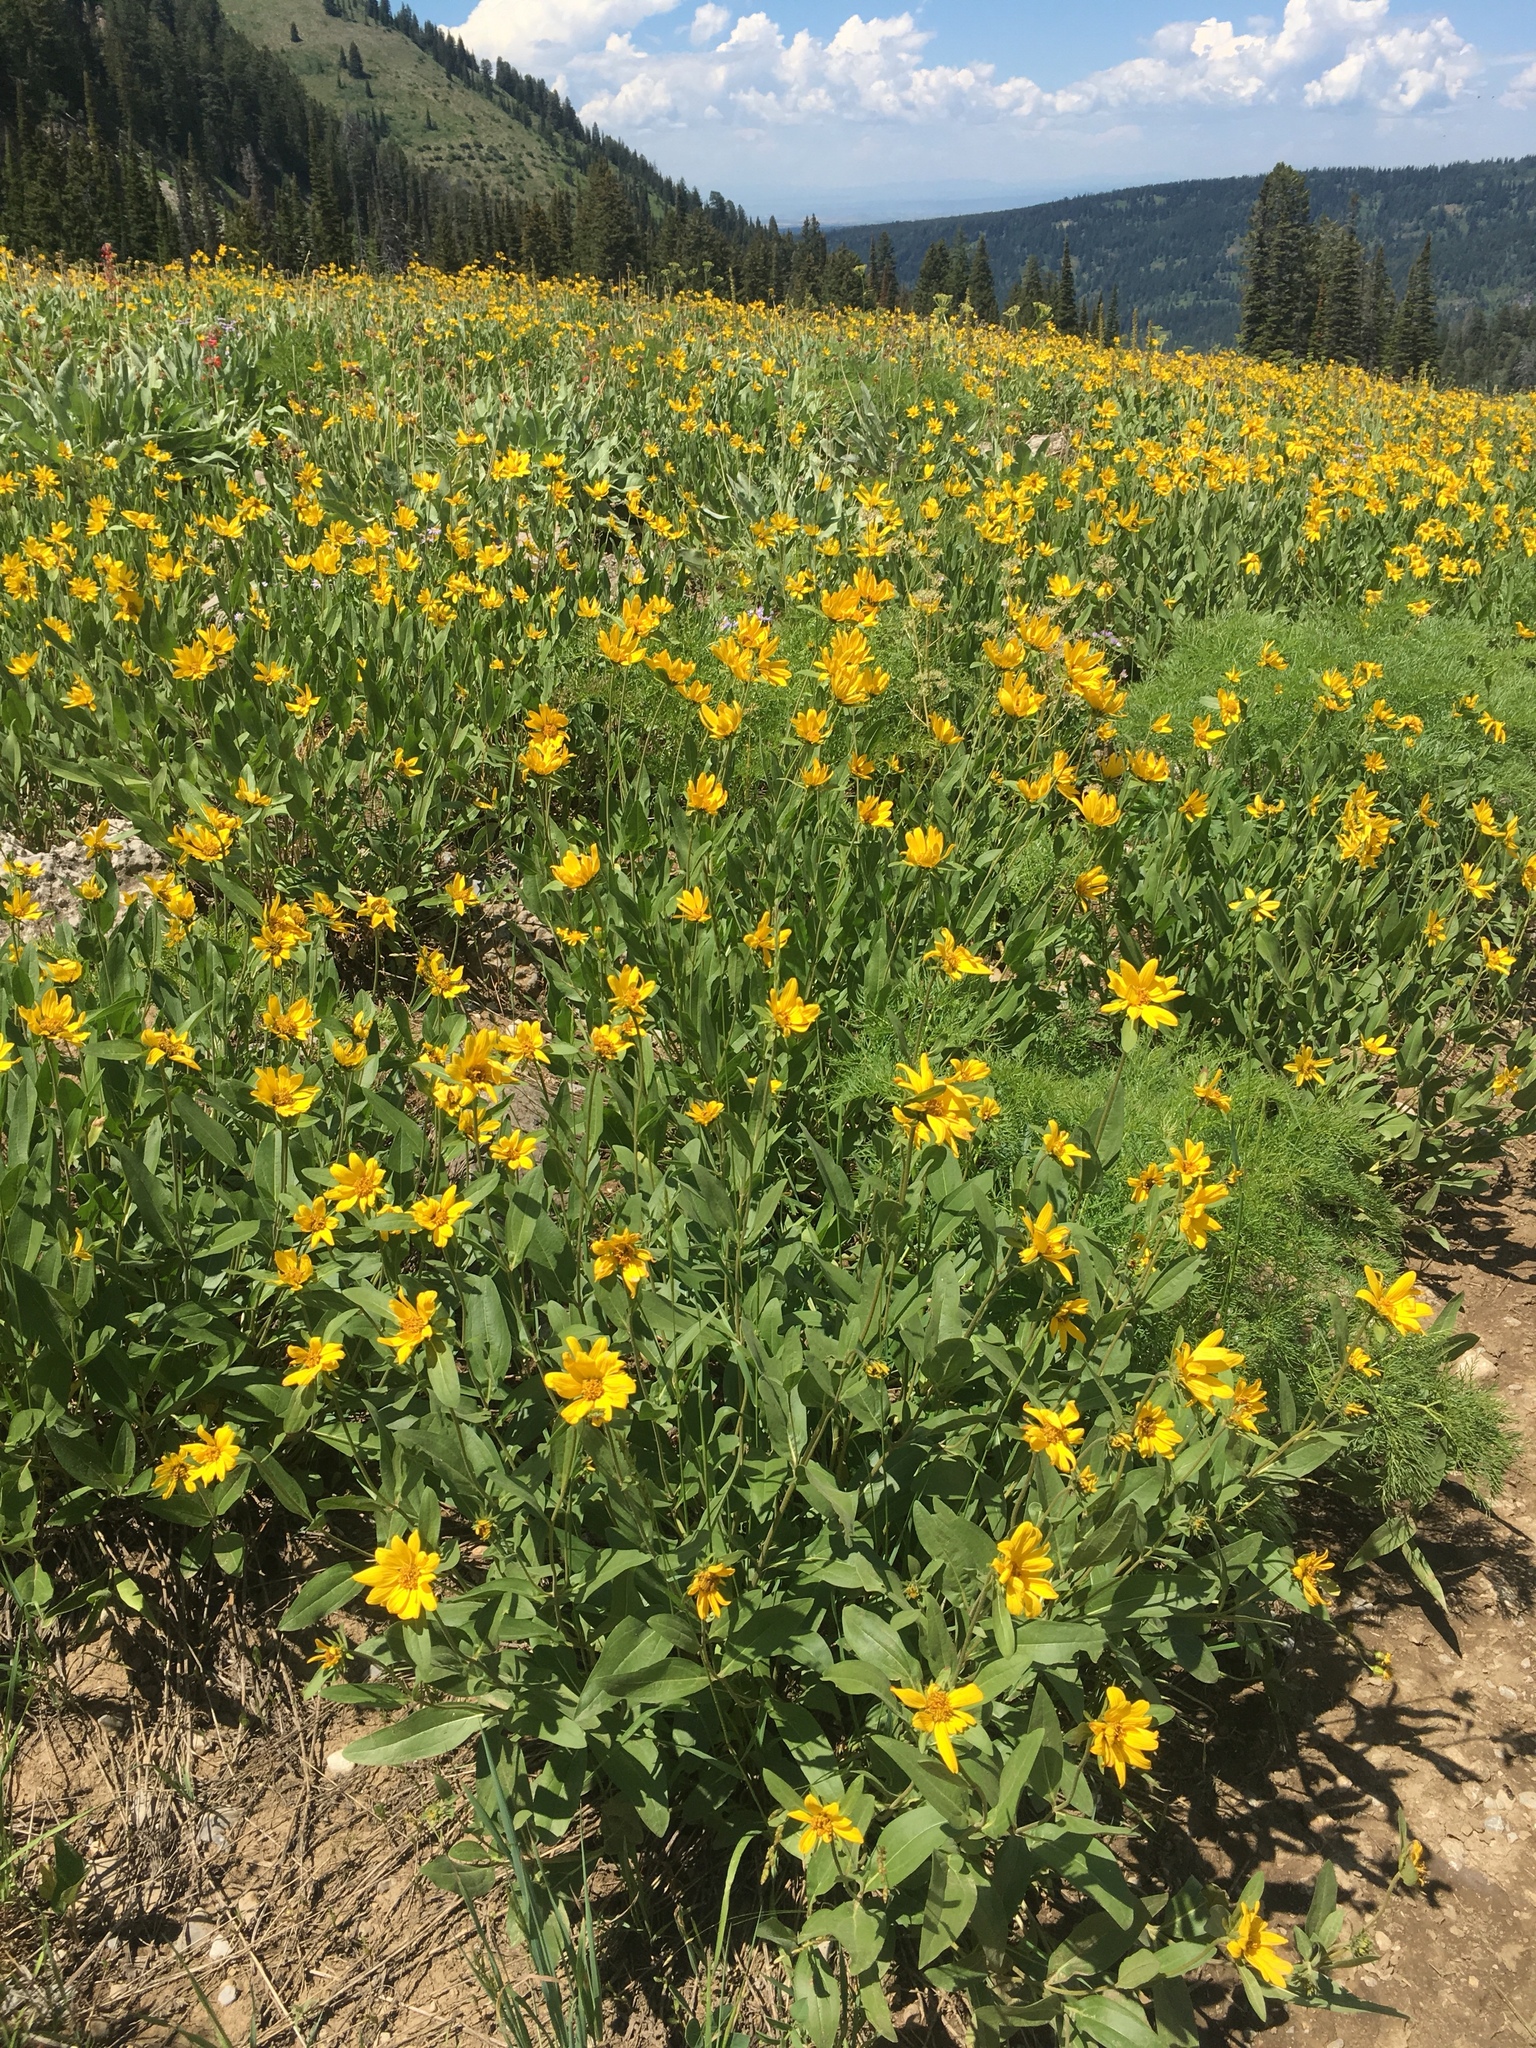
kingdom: Plantae
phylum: Tracheophyta
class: Magnoliopsida
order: Asterales
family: Asteraceae
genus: Helianthella
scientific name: Helianthella uniflora
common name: Rocky mountain dwarf sunflower
